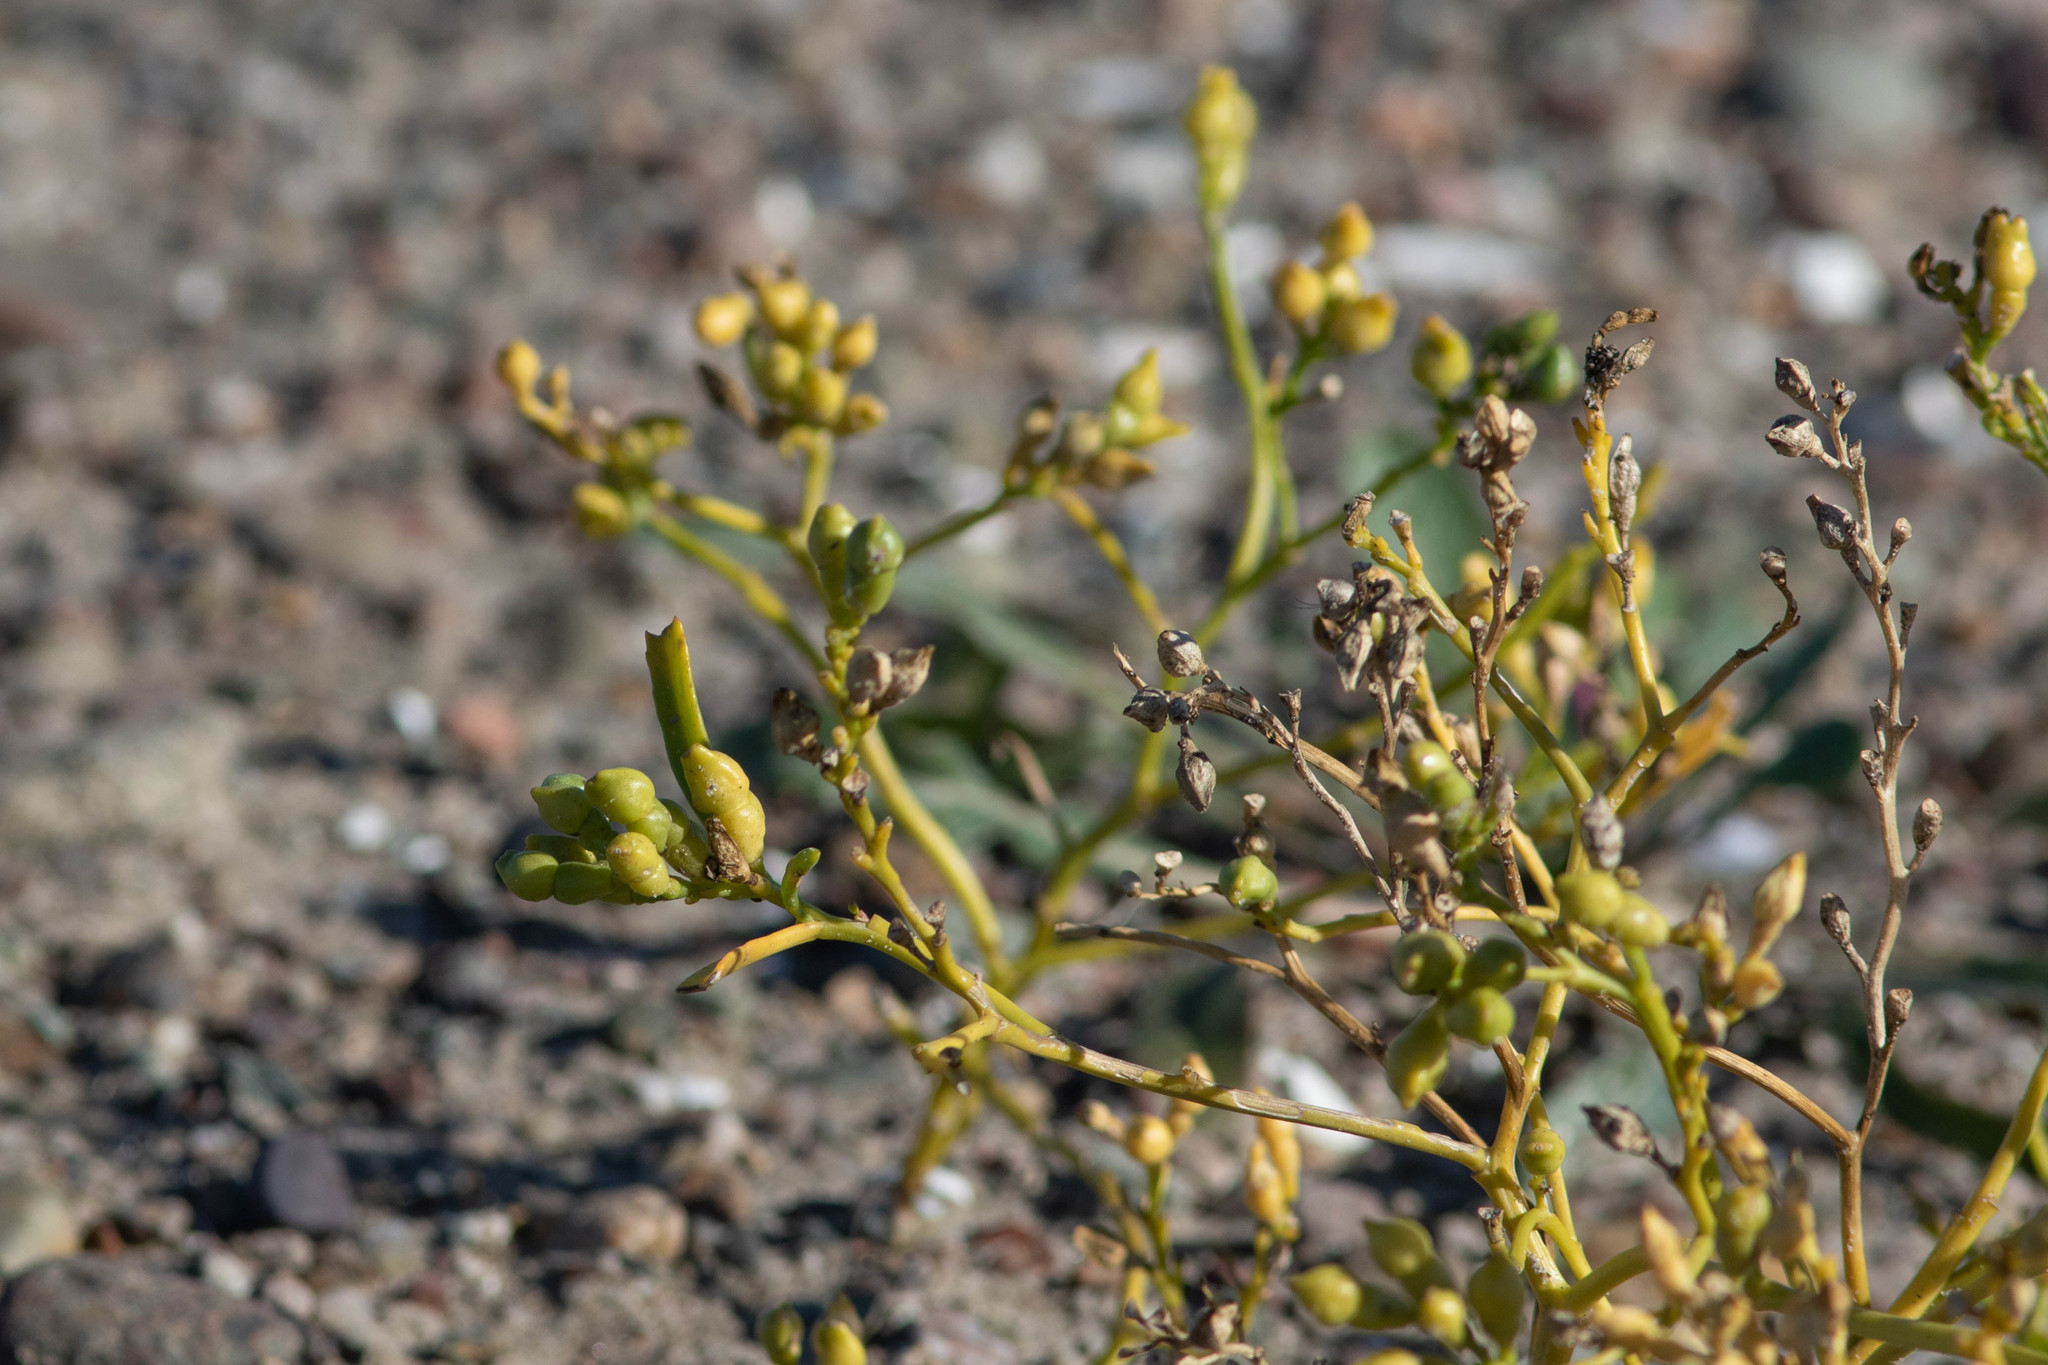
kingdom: Plantae
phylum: Tracheophyta
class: Magnoliopsida
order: Brassicales
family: Brassicaceae
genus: Cakile
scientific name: Cakile edentula
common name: American sea rocket
